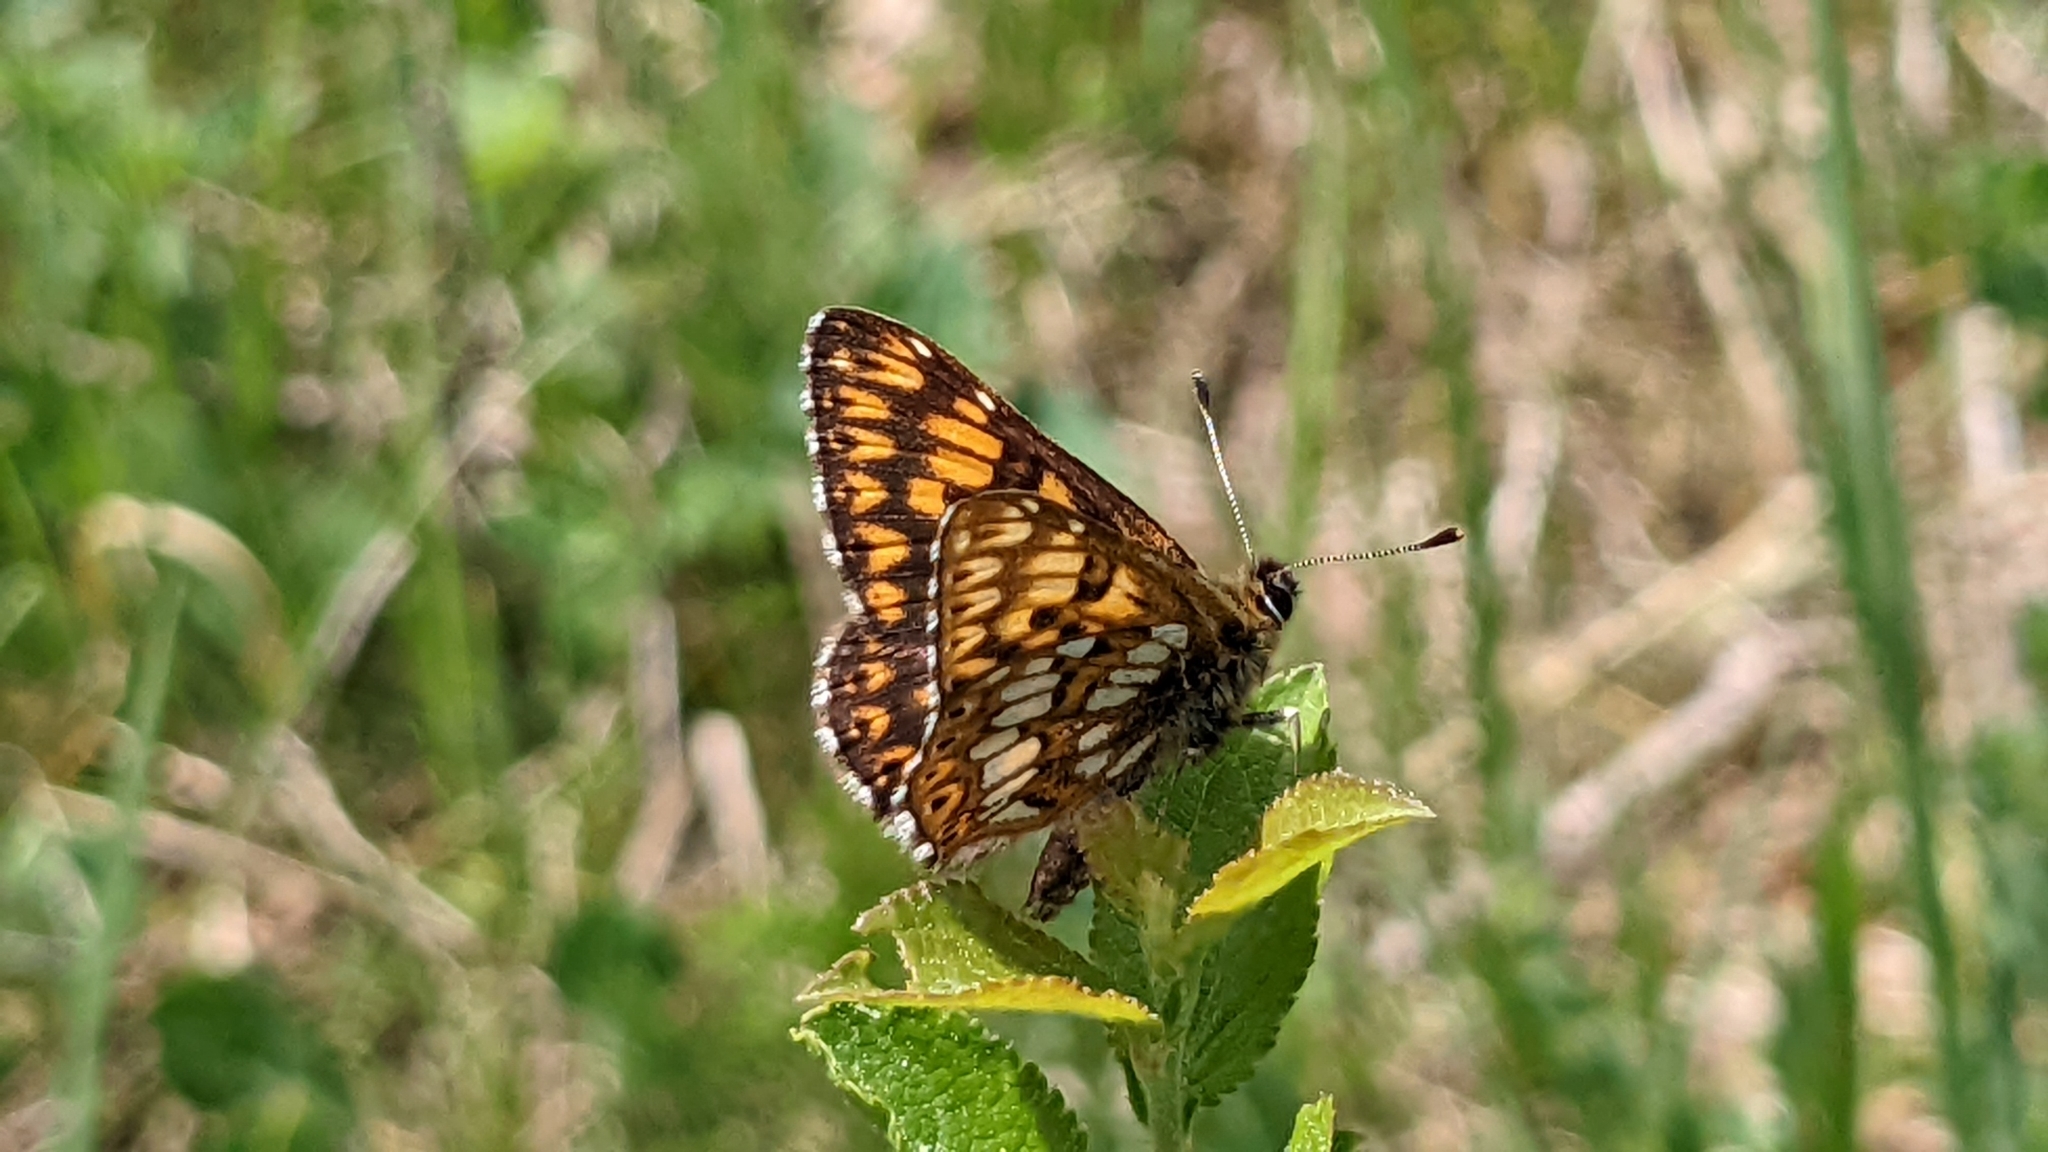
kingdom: Animalia
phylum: Arthropoda
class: Insecta
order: Lepidoptera
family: Riodinidae
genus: Hamearis
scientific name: Hamearis lucina
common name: Duke of burgundy fritillary
